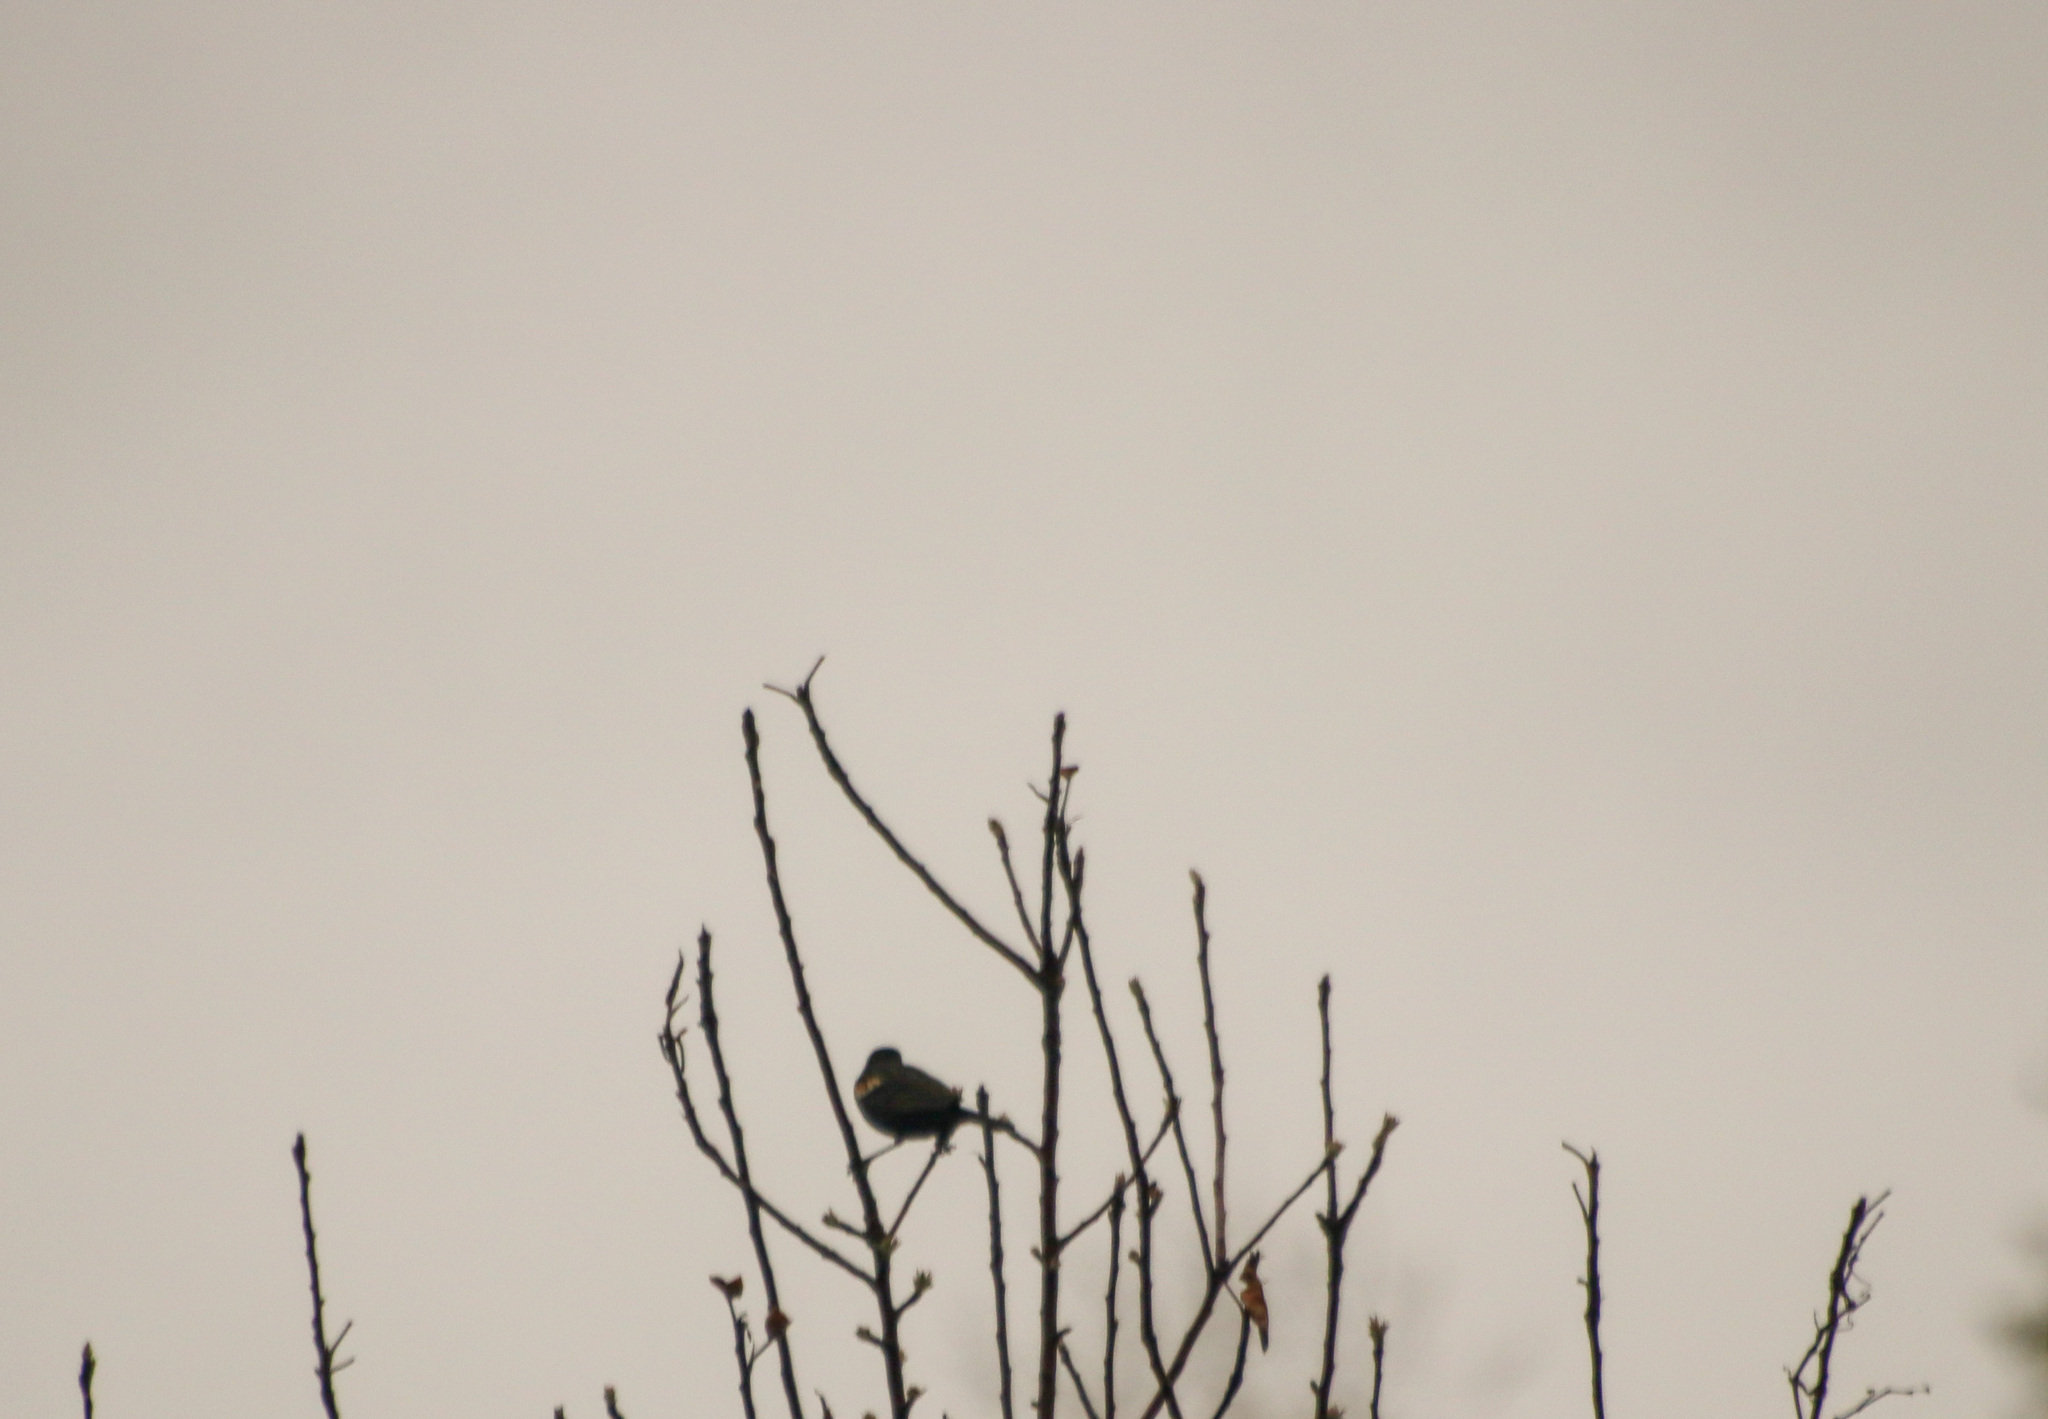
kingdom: Animalia
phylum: Chordata
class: Aves
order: Passeriformes
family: Icteridae
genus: Agelaius
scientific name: Agelaius phoeniceus
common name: Red-winged blackbird
